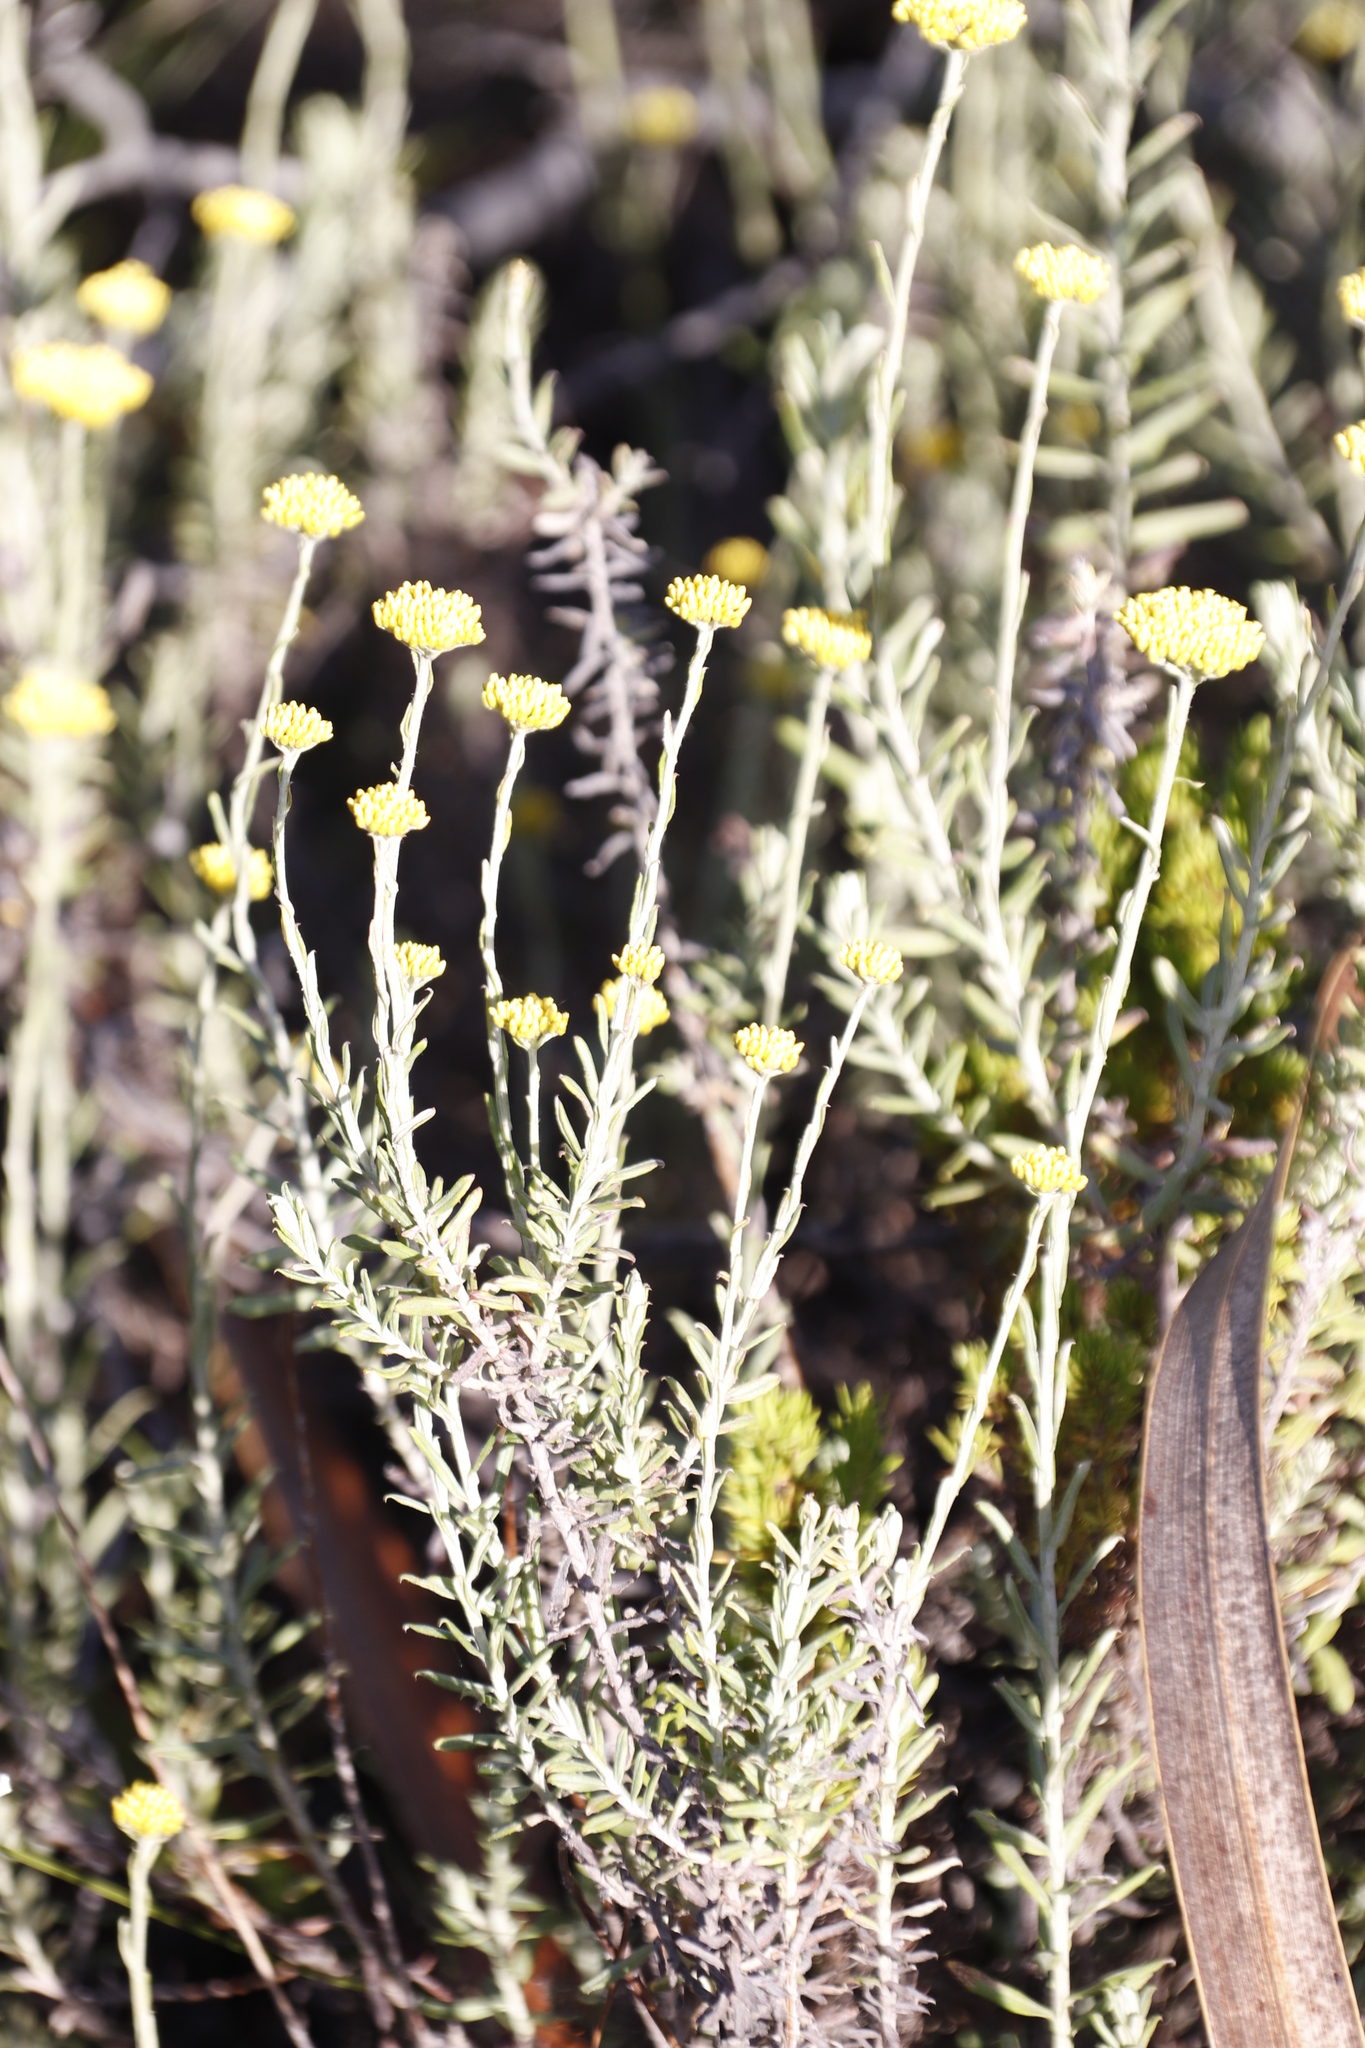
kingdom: Plantae
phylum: Tracheophyta
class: Magnoliopsida
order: Asterales
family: Asteraceae
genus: Helichrysum
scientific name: Helichrysum cymosum
